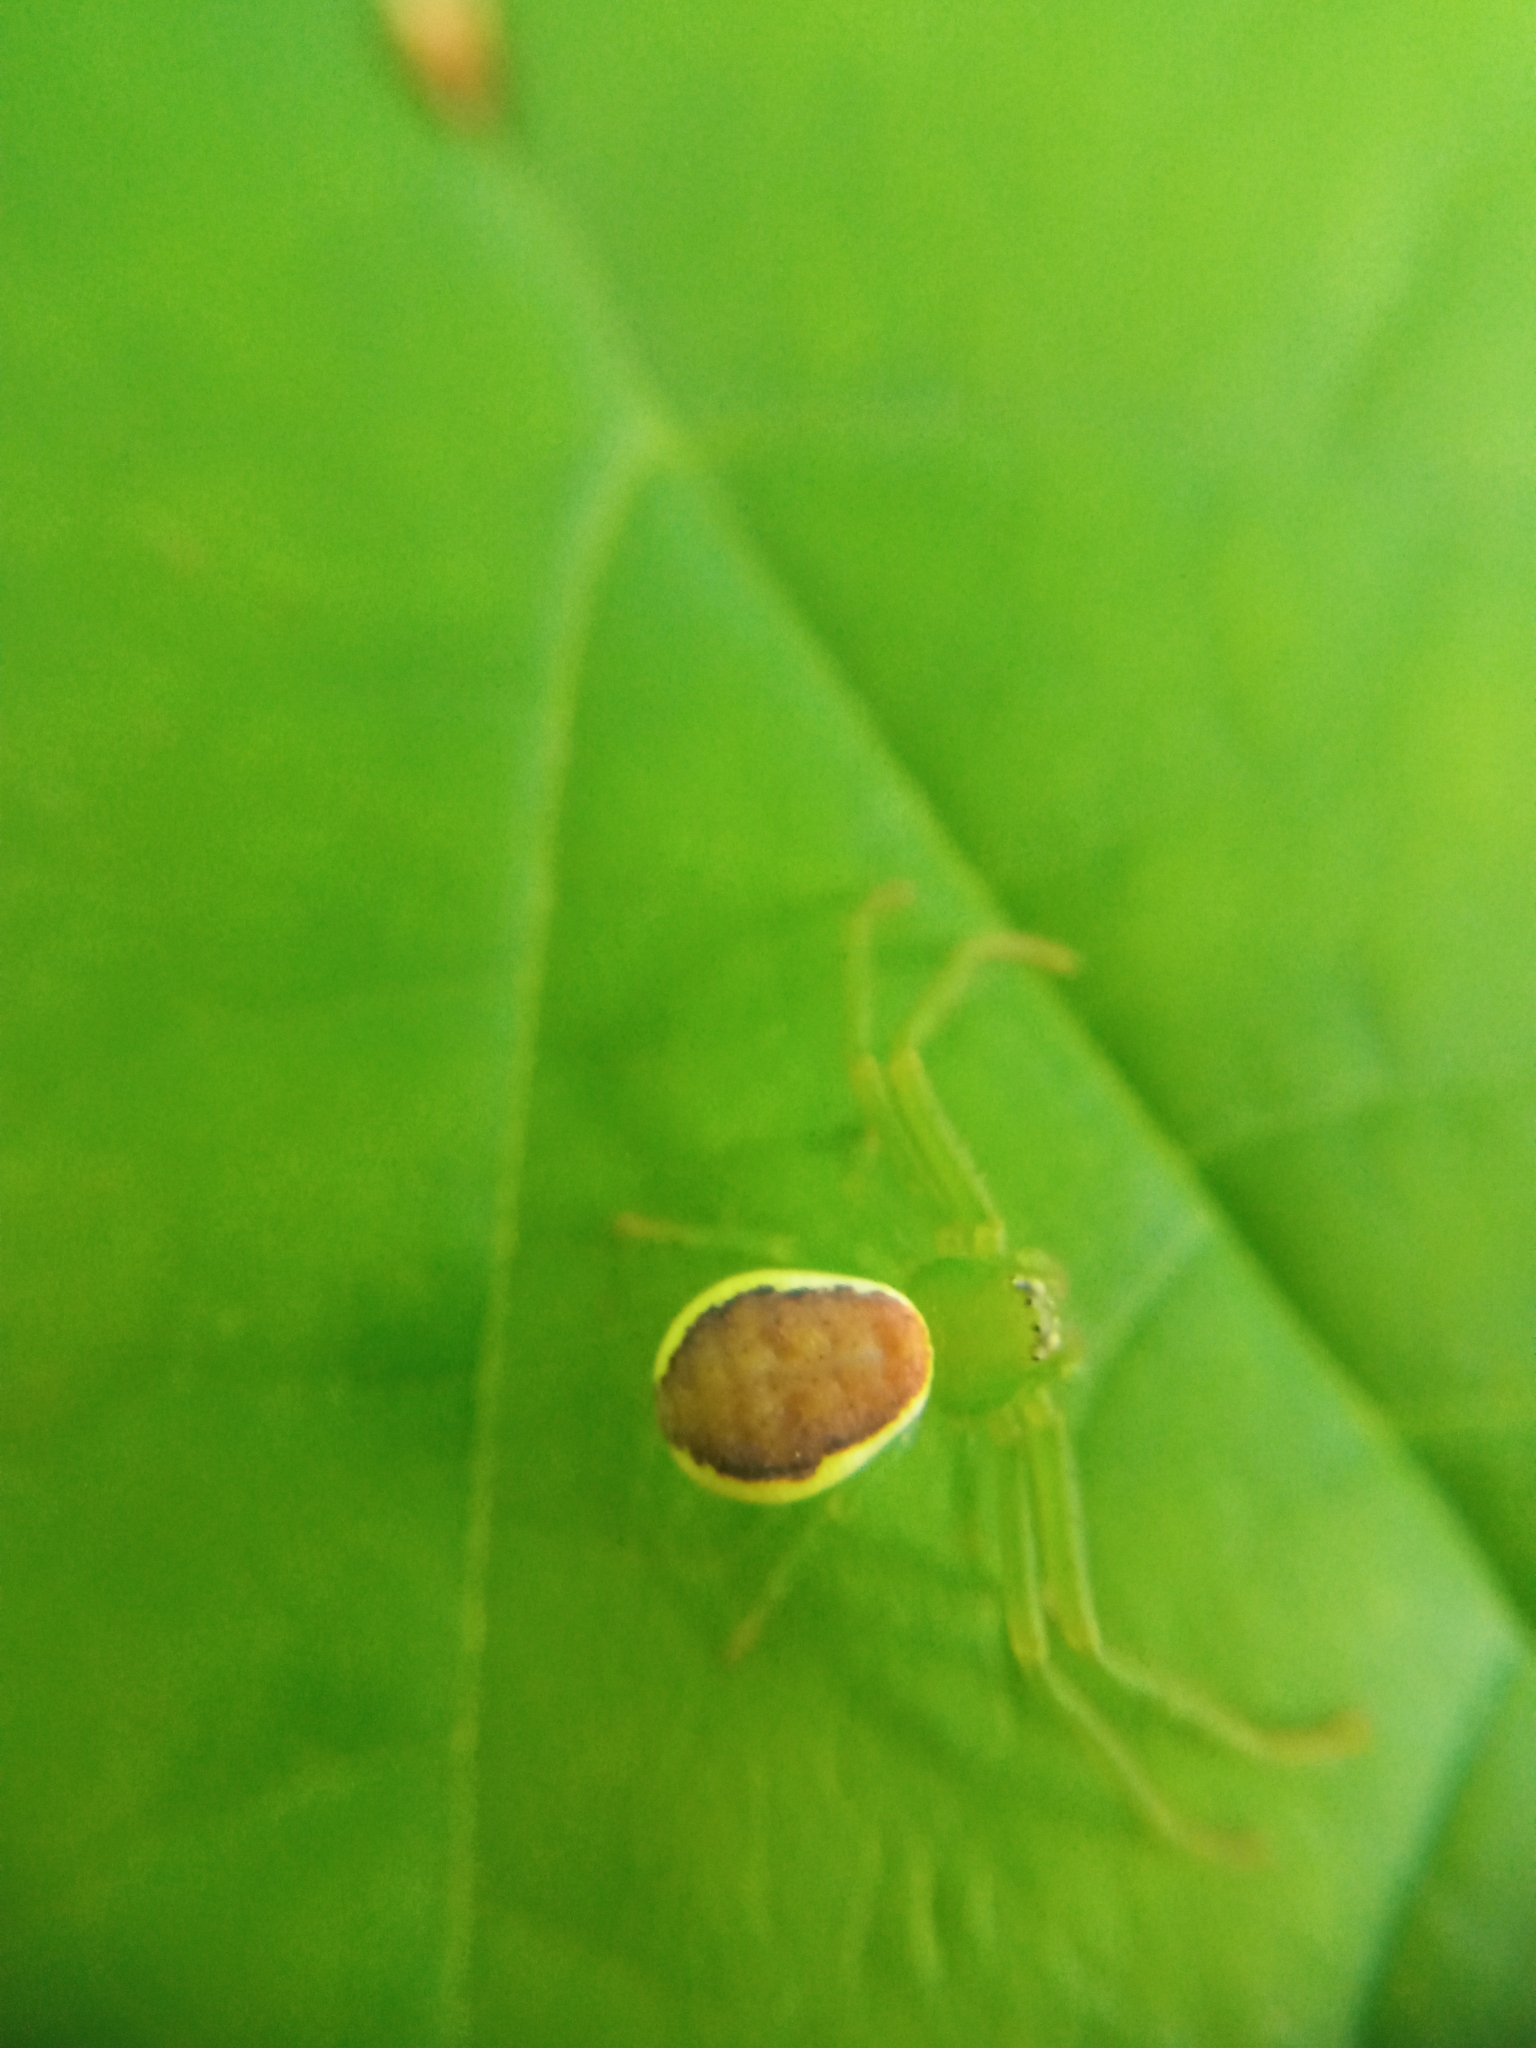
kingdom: Animalia
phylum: Arthropoda
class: Arachnida
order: Araneae
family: Thomisidae
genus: Diaea
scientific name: Diaea dorsata
